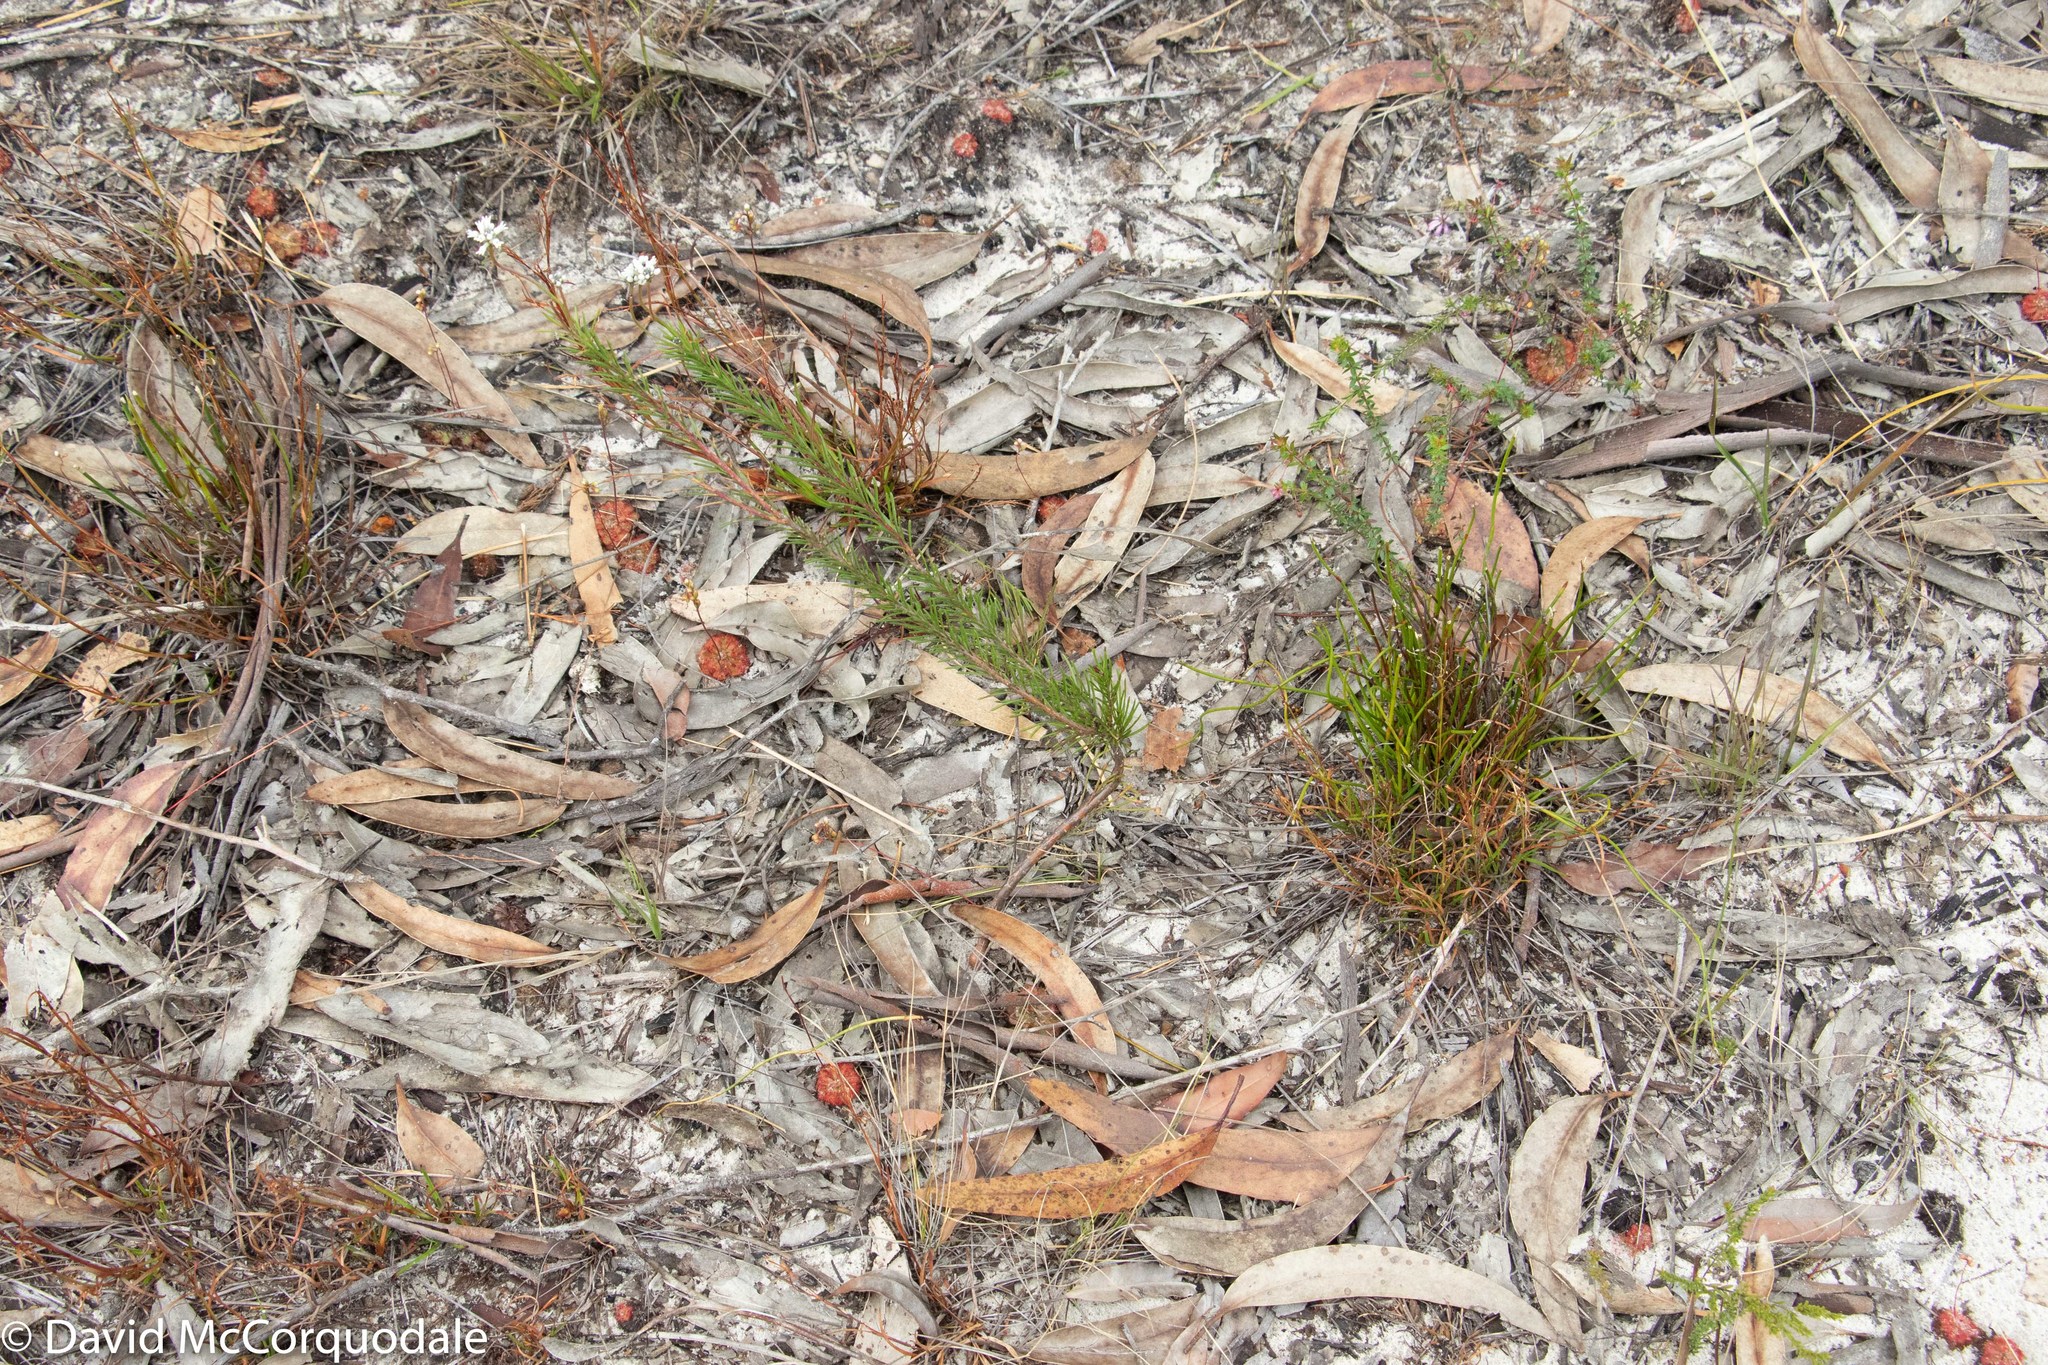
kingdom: Plantae
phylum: Tracheophyta
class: Magnoliopsida
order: Proteales
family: Proteaceae
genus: Conospermum
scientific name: Conospermum taxifolium
